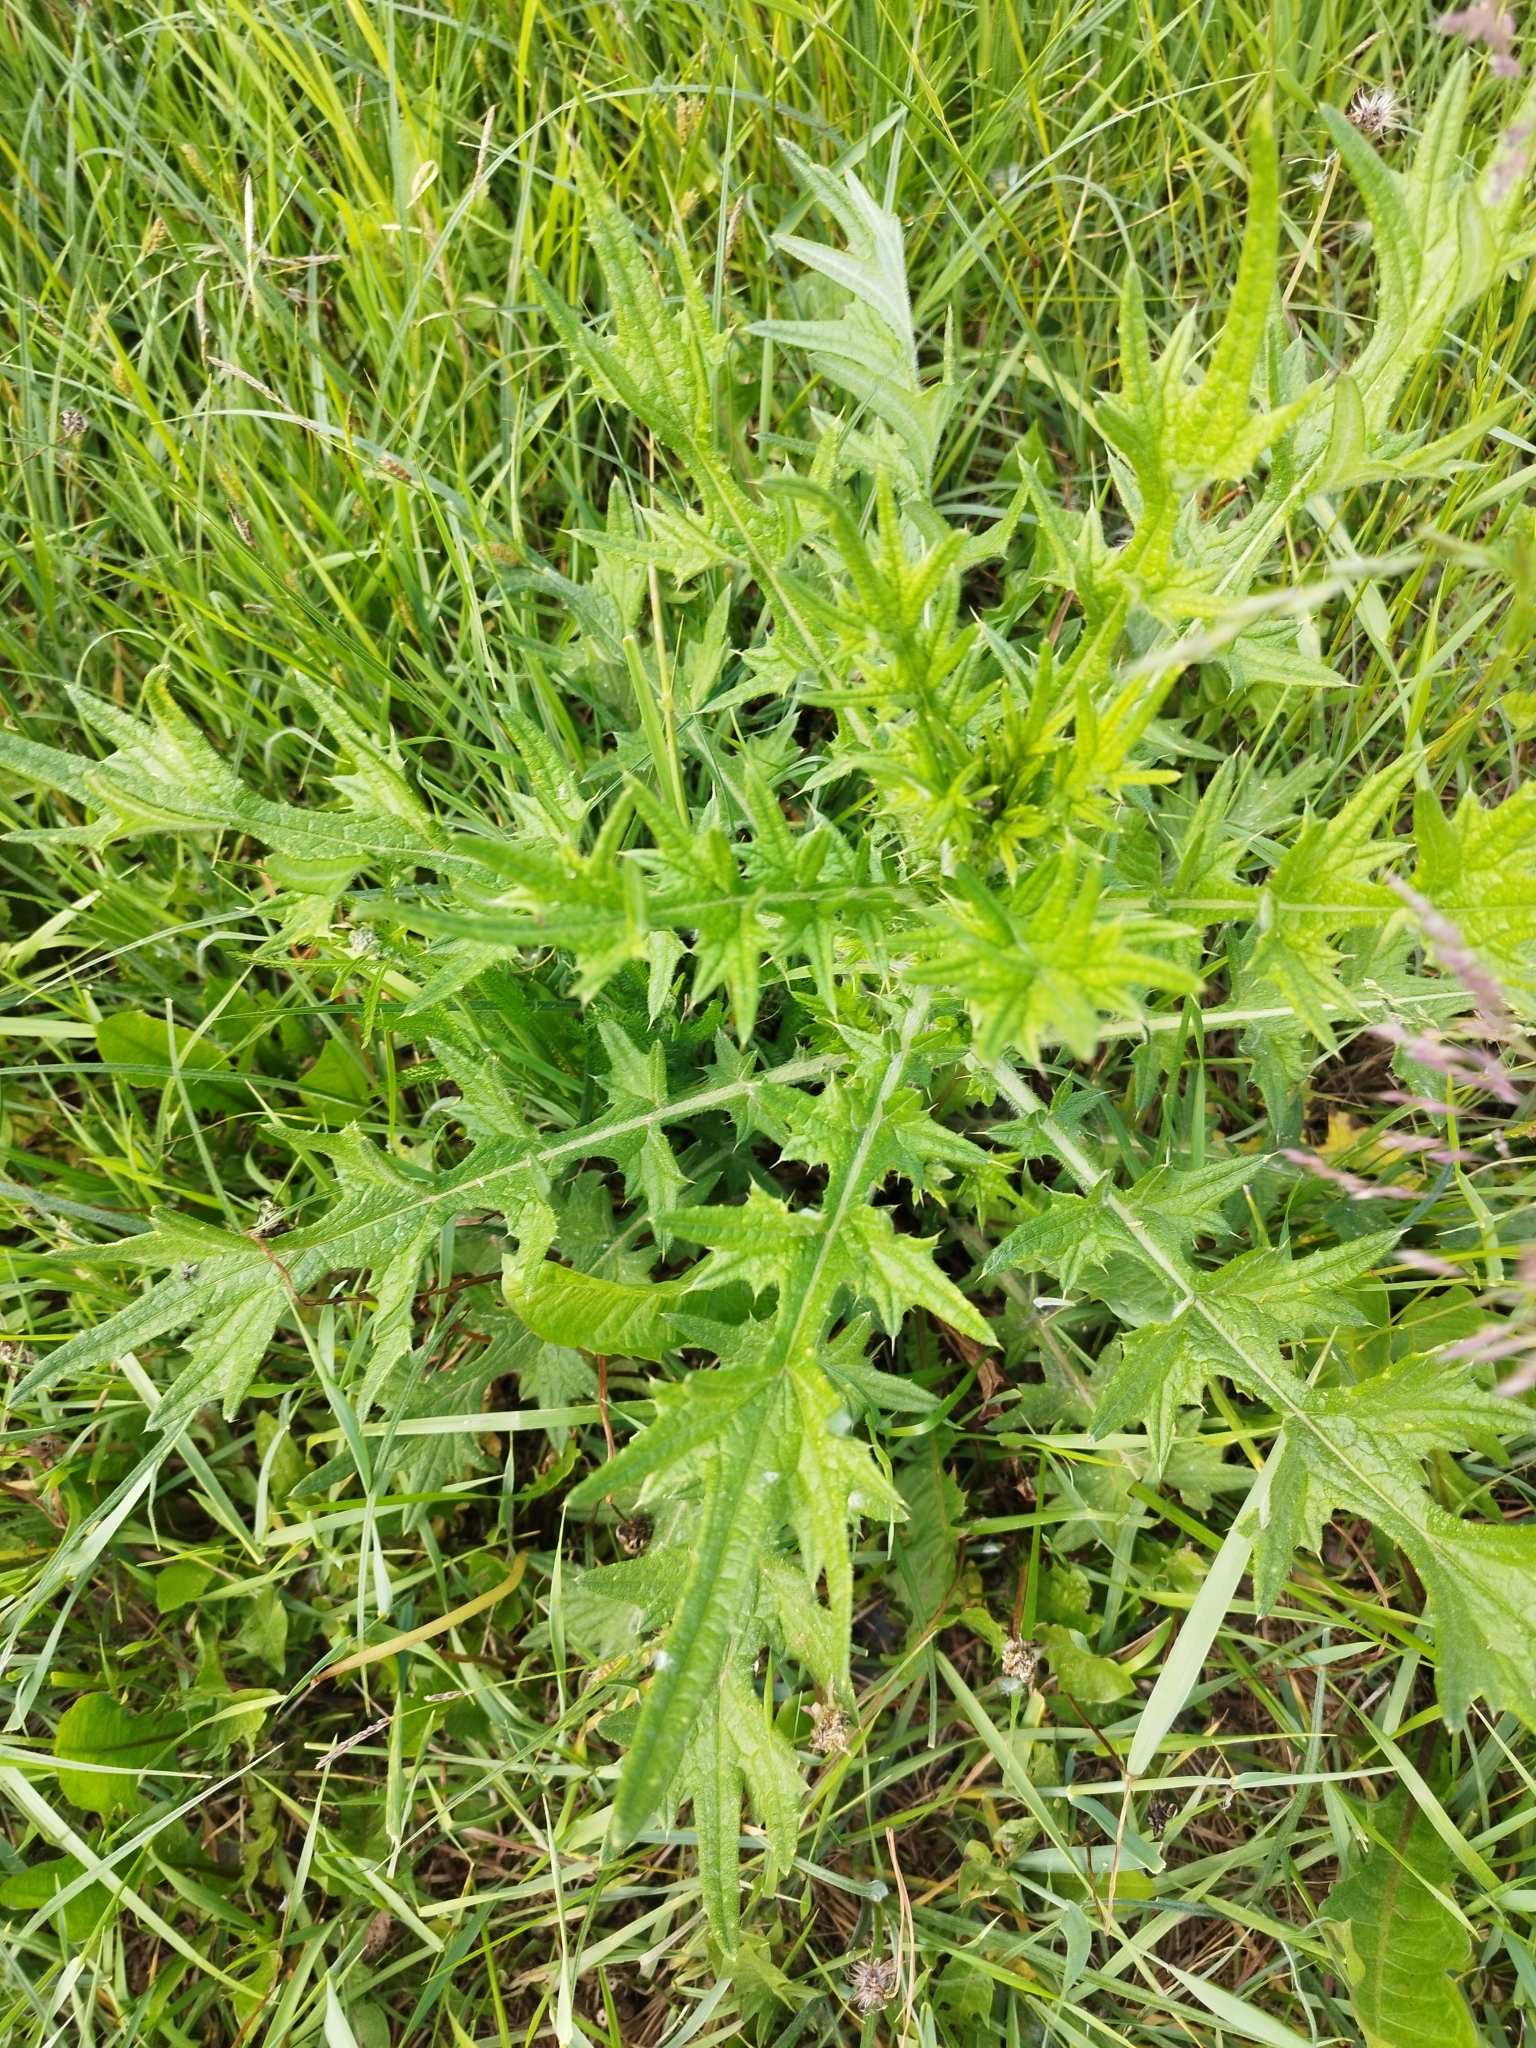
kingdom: Plantae
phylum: Tracheophyta
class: Magnoliopsida
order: Asterales
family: Asteraceae
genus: Cirsium
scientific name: Cirsium vulgare
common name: Bull thistle
